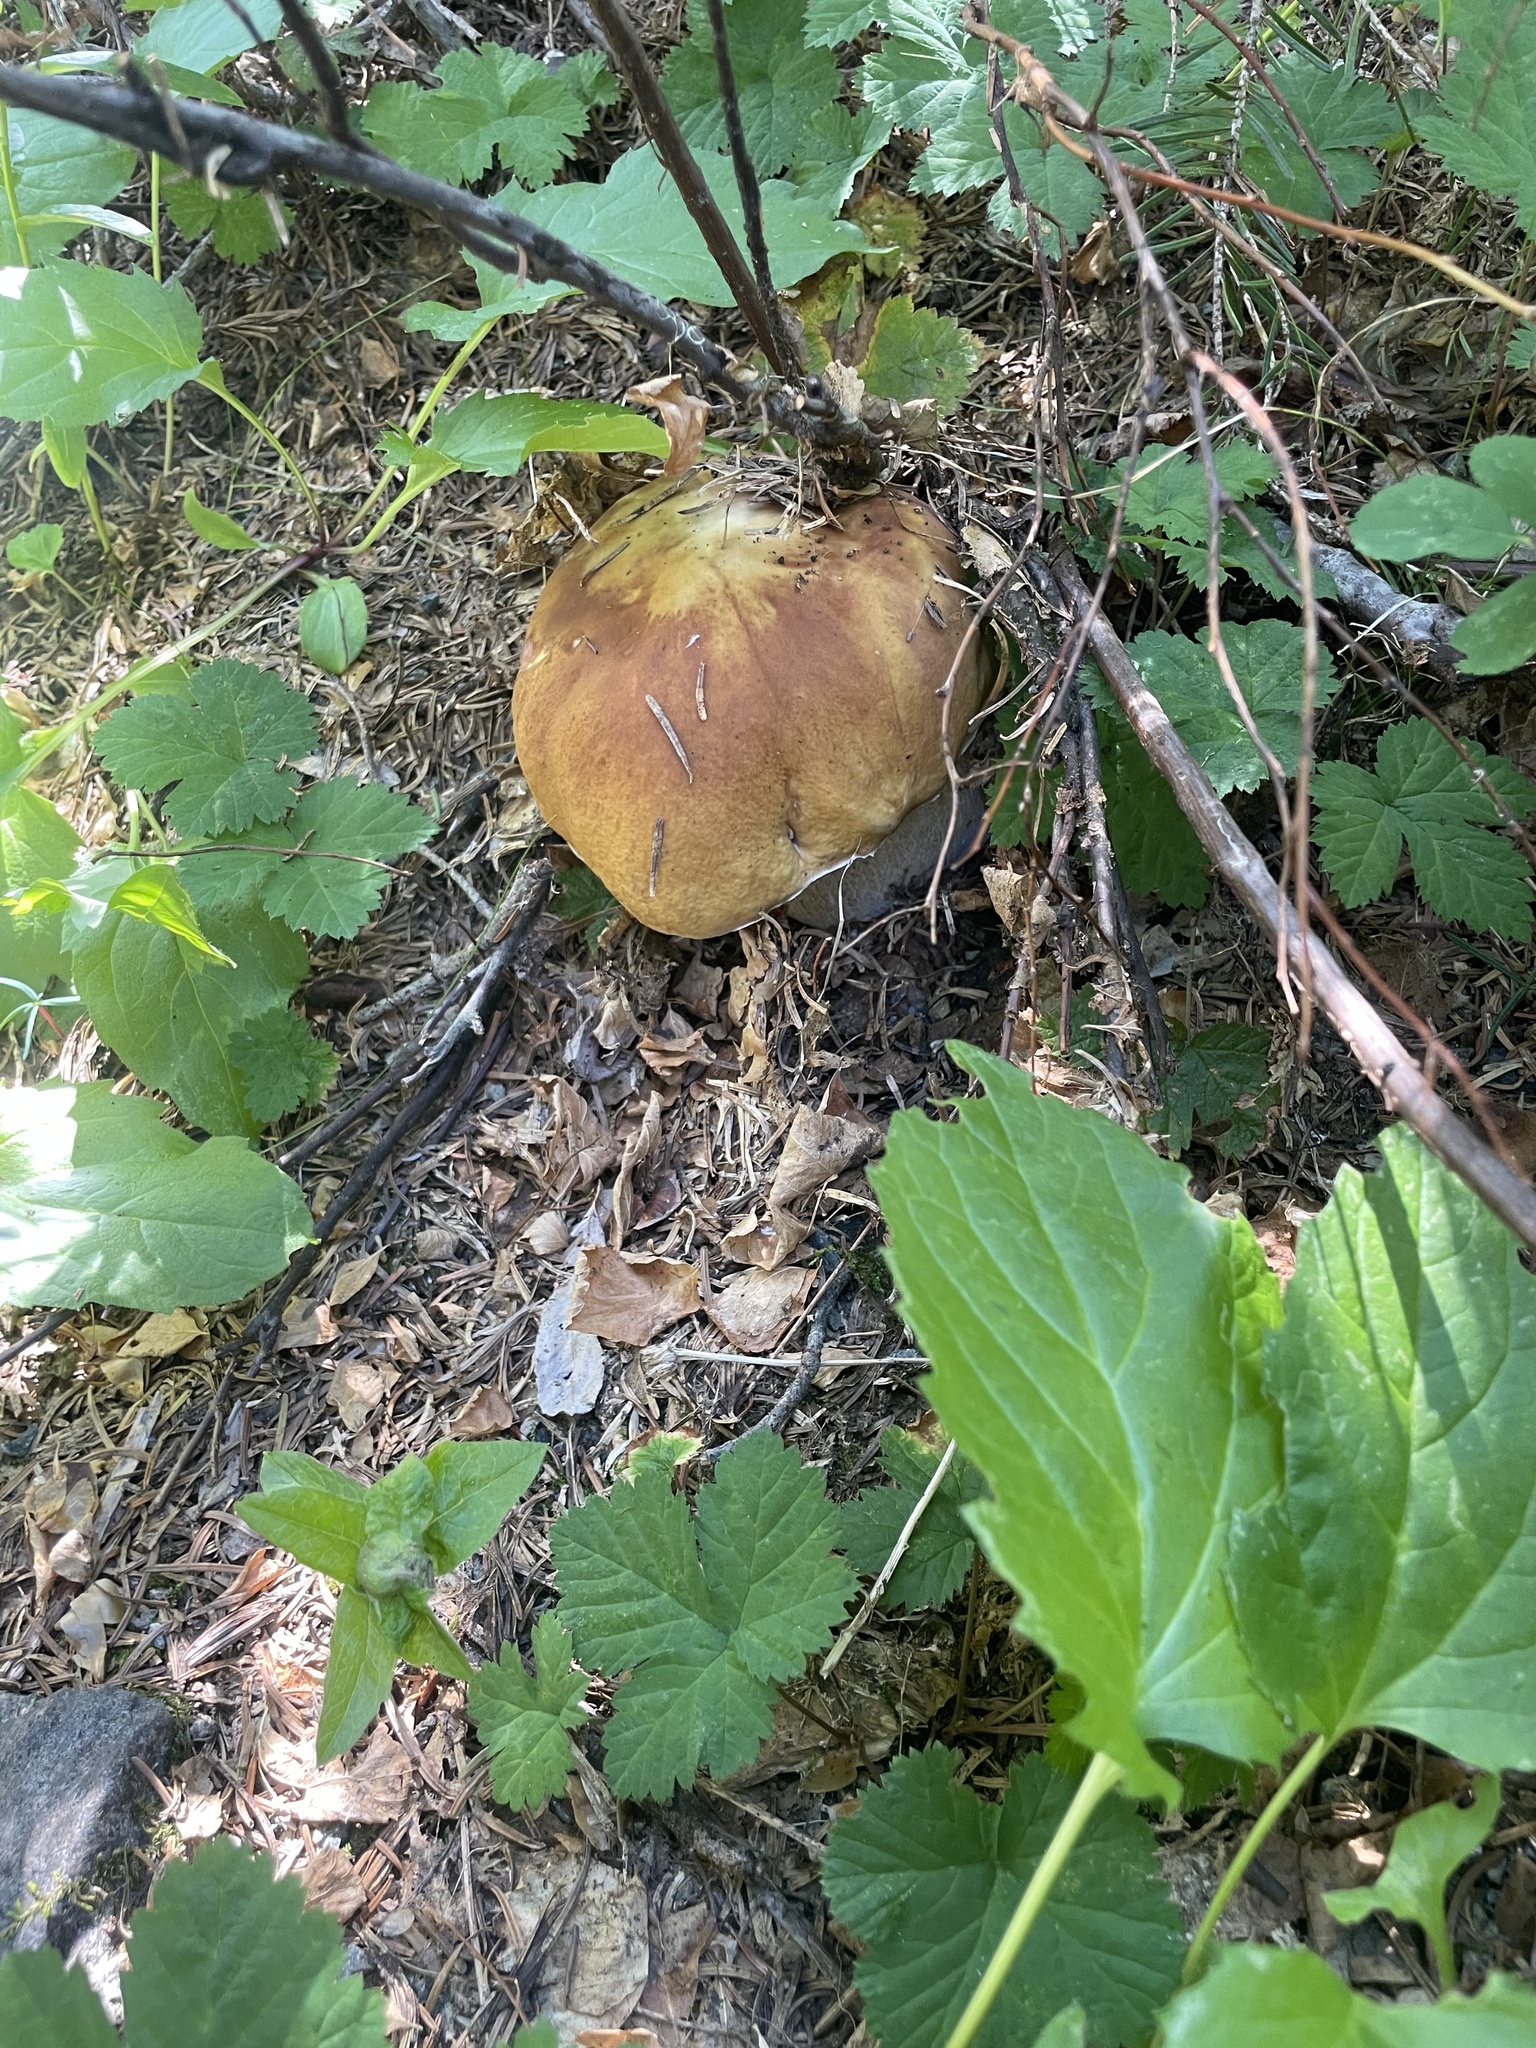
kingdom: Fungi
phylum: Basidiomycota
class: Agaricomycetes
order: Boletales
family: Boletaceae
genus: Boletus
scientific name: Boletus edulis
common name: Cep
